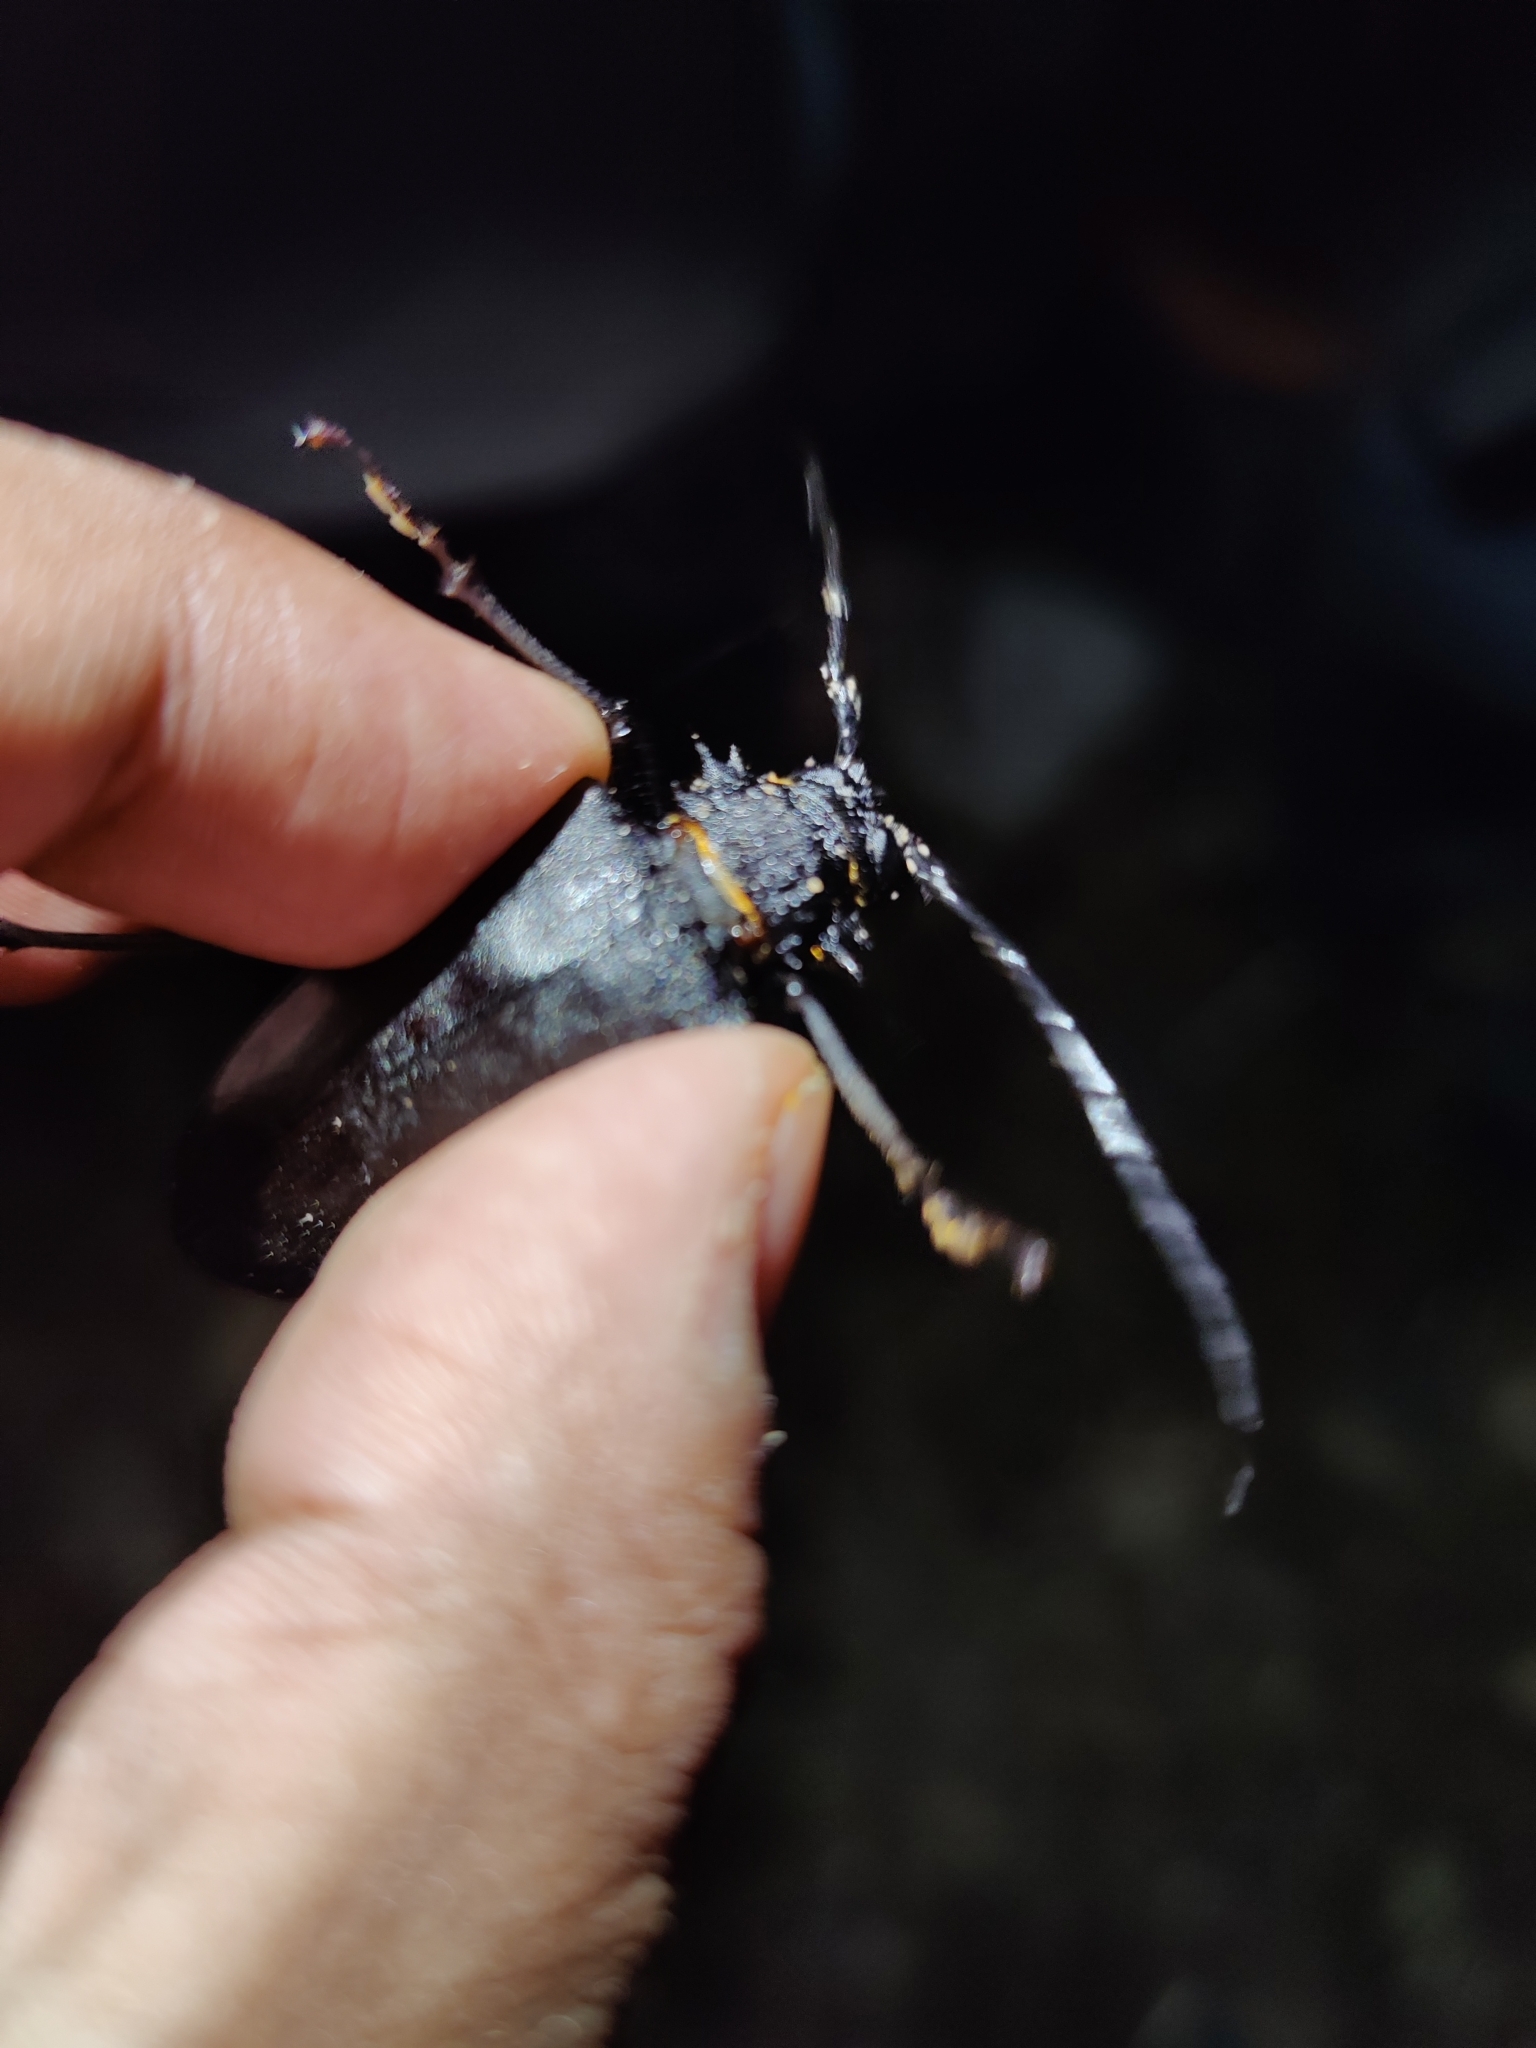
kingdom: Animalia
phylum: Arthropoda
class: Insecta
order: Coleoptera
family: Cerambycidae
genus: Priotyrannus
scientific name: Priotyrannus mordax
